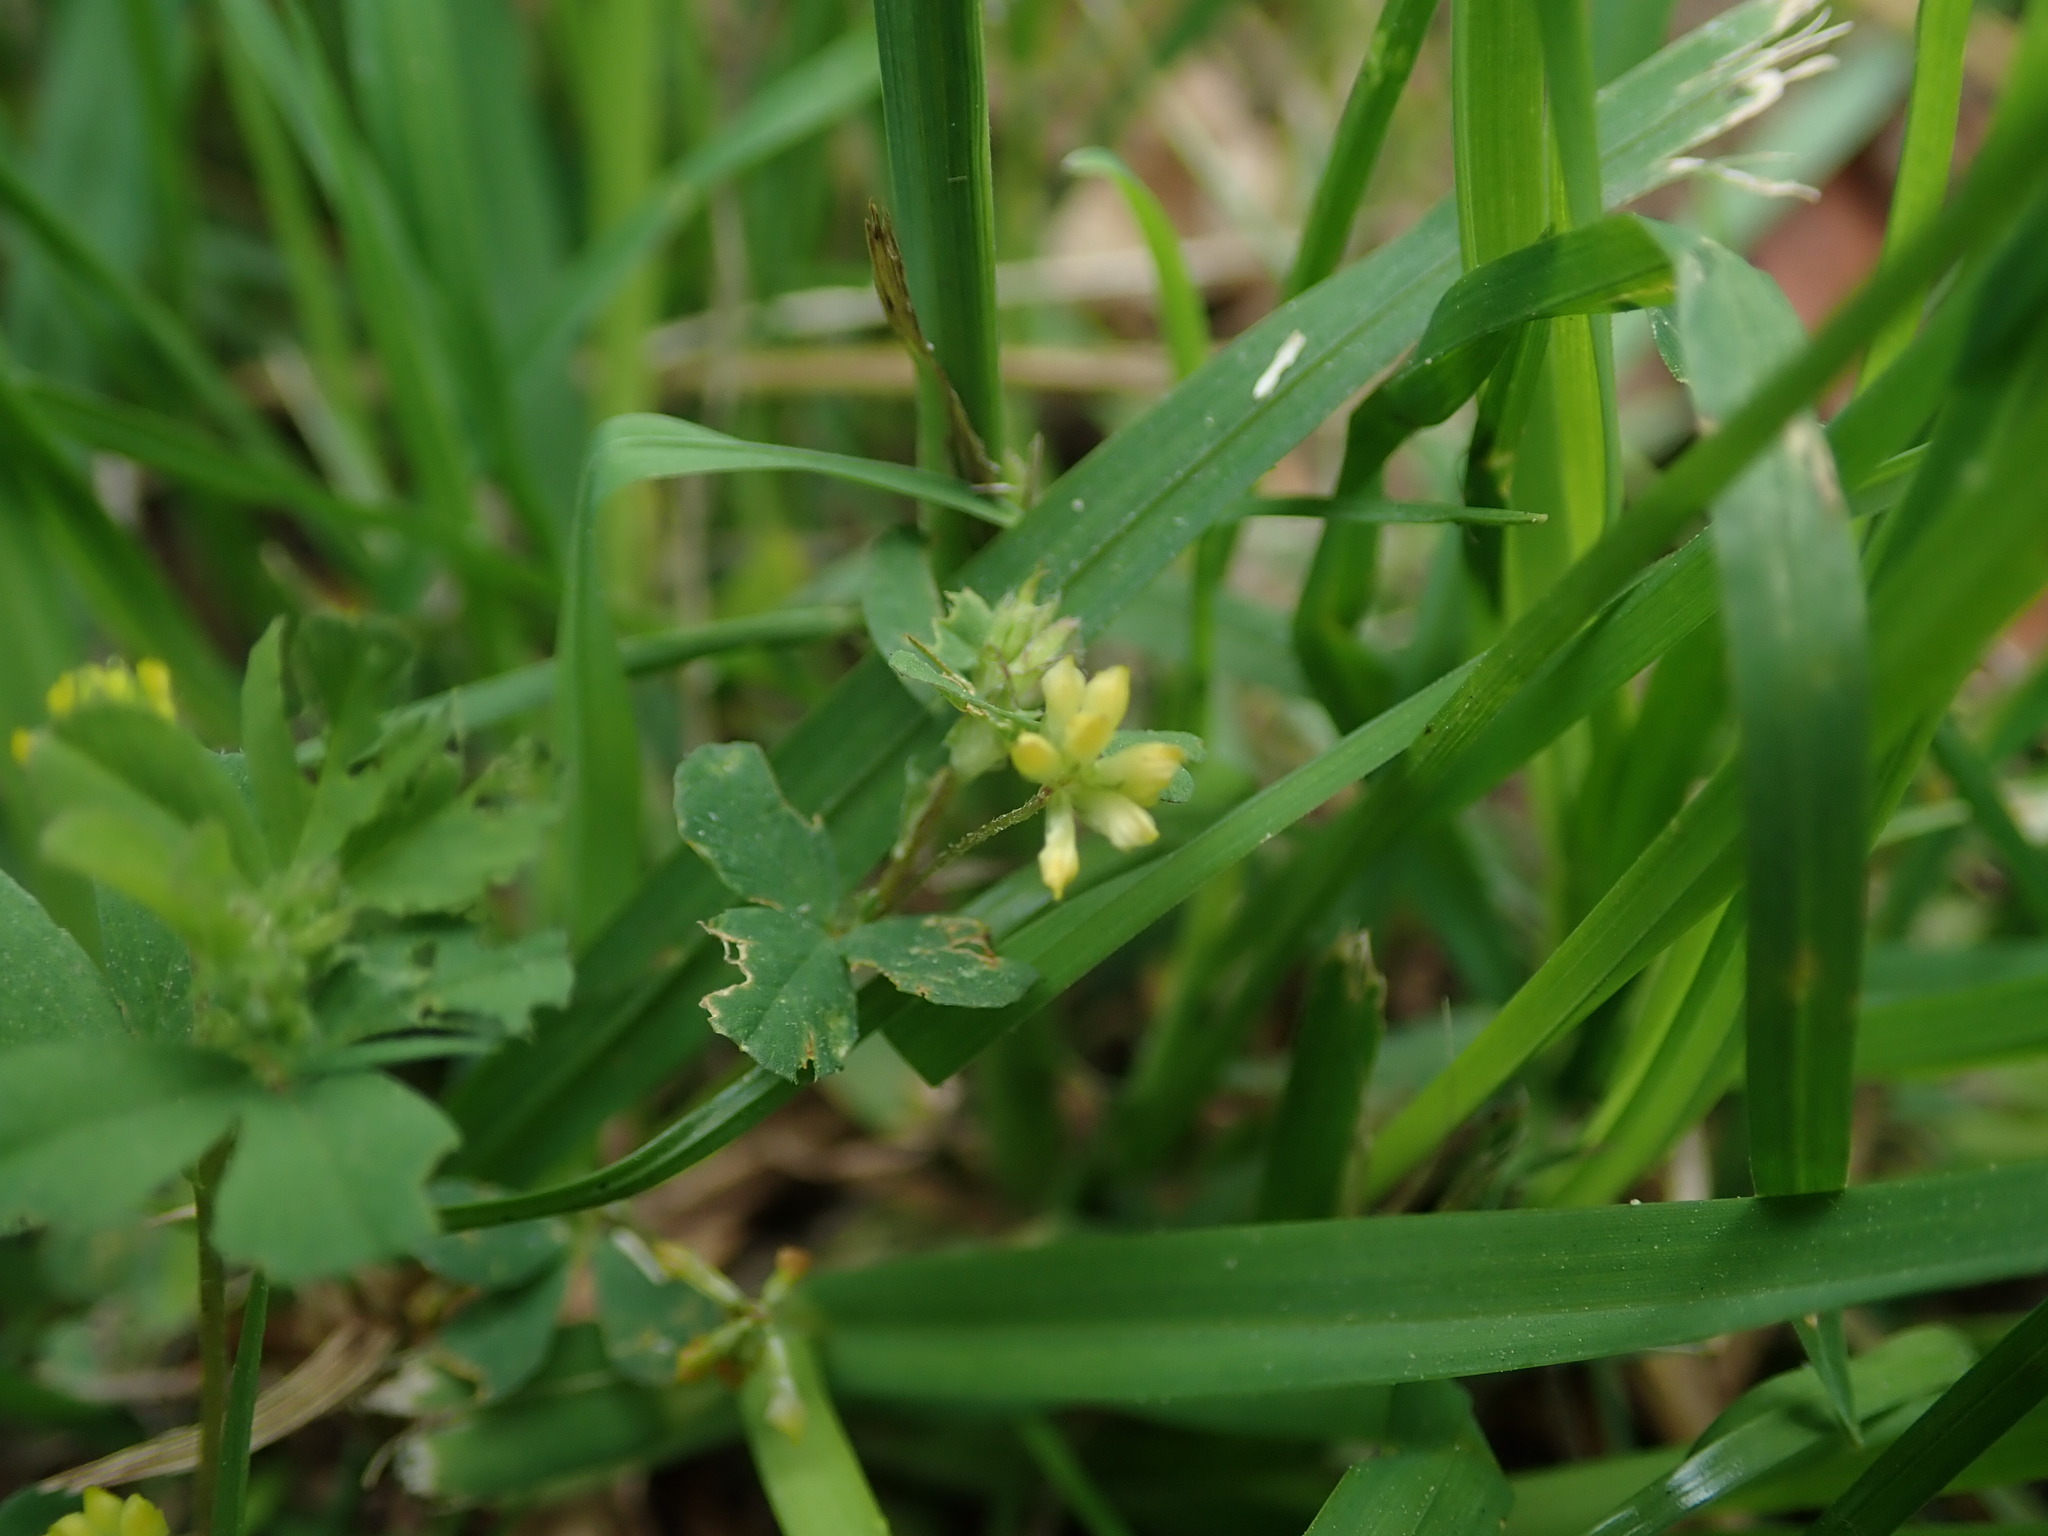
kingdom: Plantae
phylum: Tracheophyta
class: Magnoliopsida
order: Fabales
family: Fabaceae
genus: Trifolium
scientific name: Trifolium dubium
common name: Suckling clover
